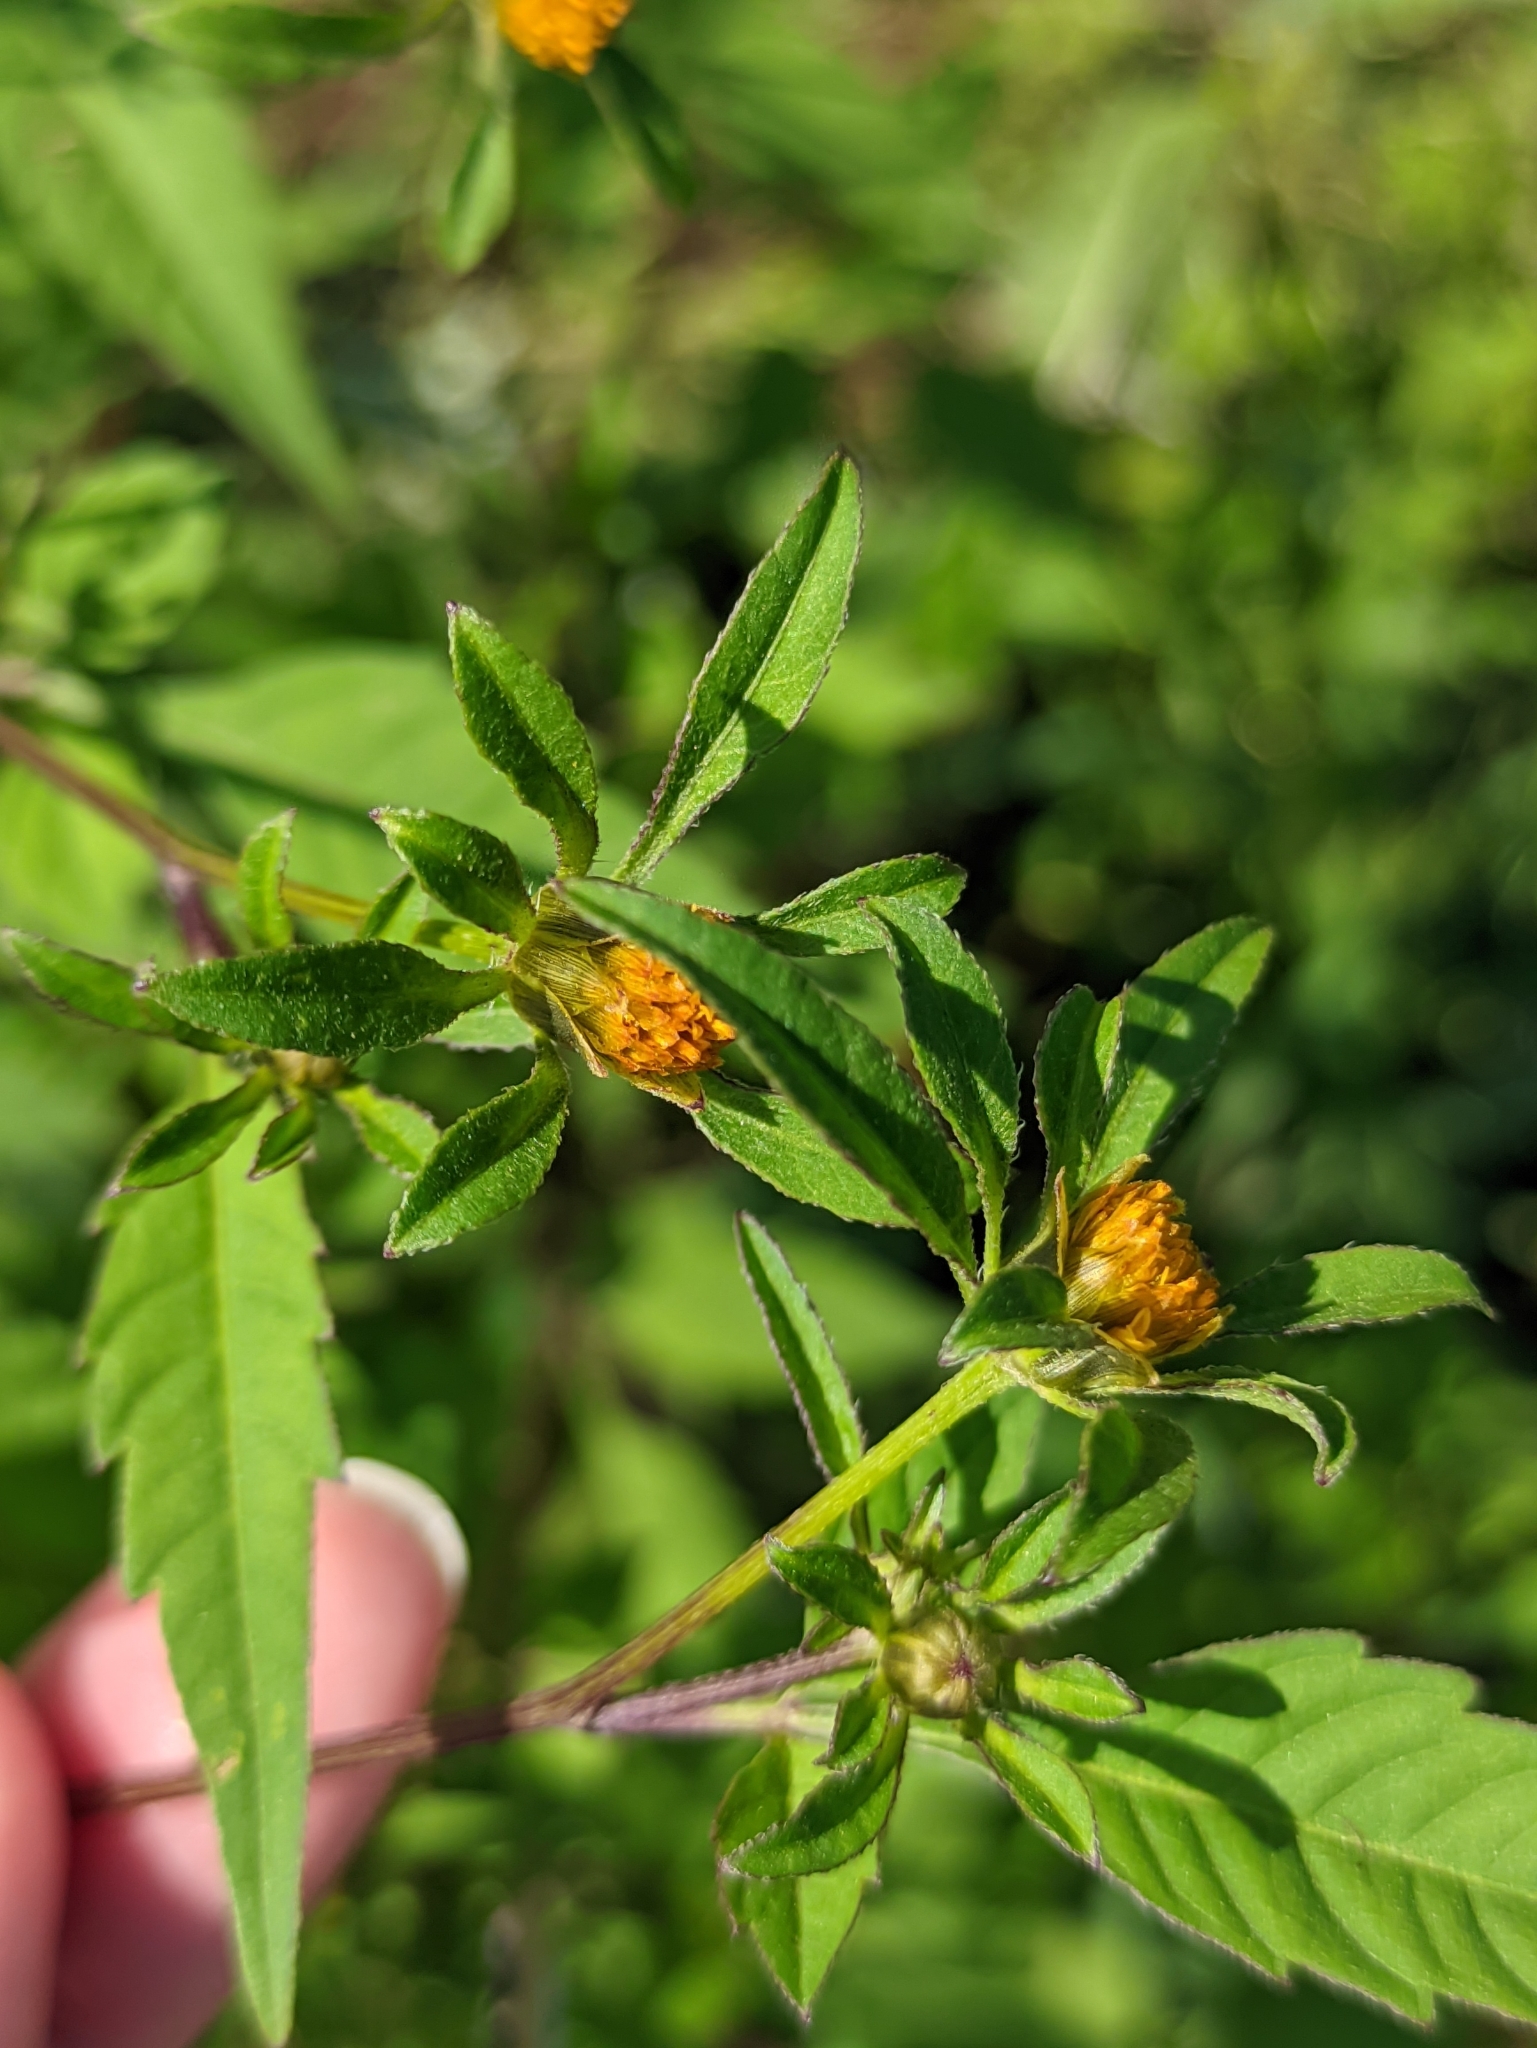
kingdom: Plantae
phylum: Tracheophyta
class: Magnoliopsida
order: Asterales
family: Asteraceae
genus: Bidens
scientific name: Bidens frondosa
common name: Beggarticks
